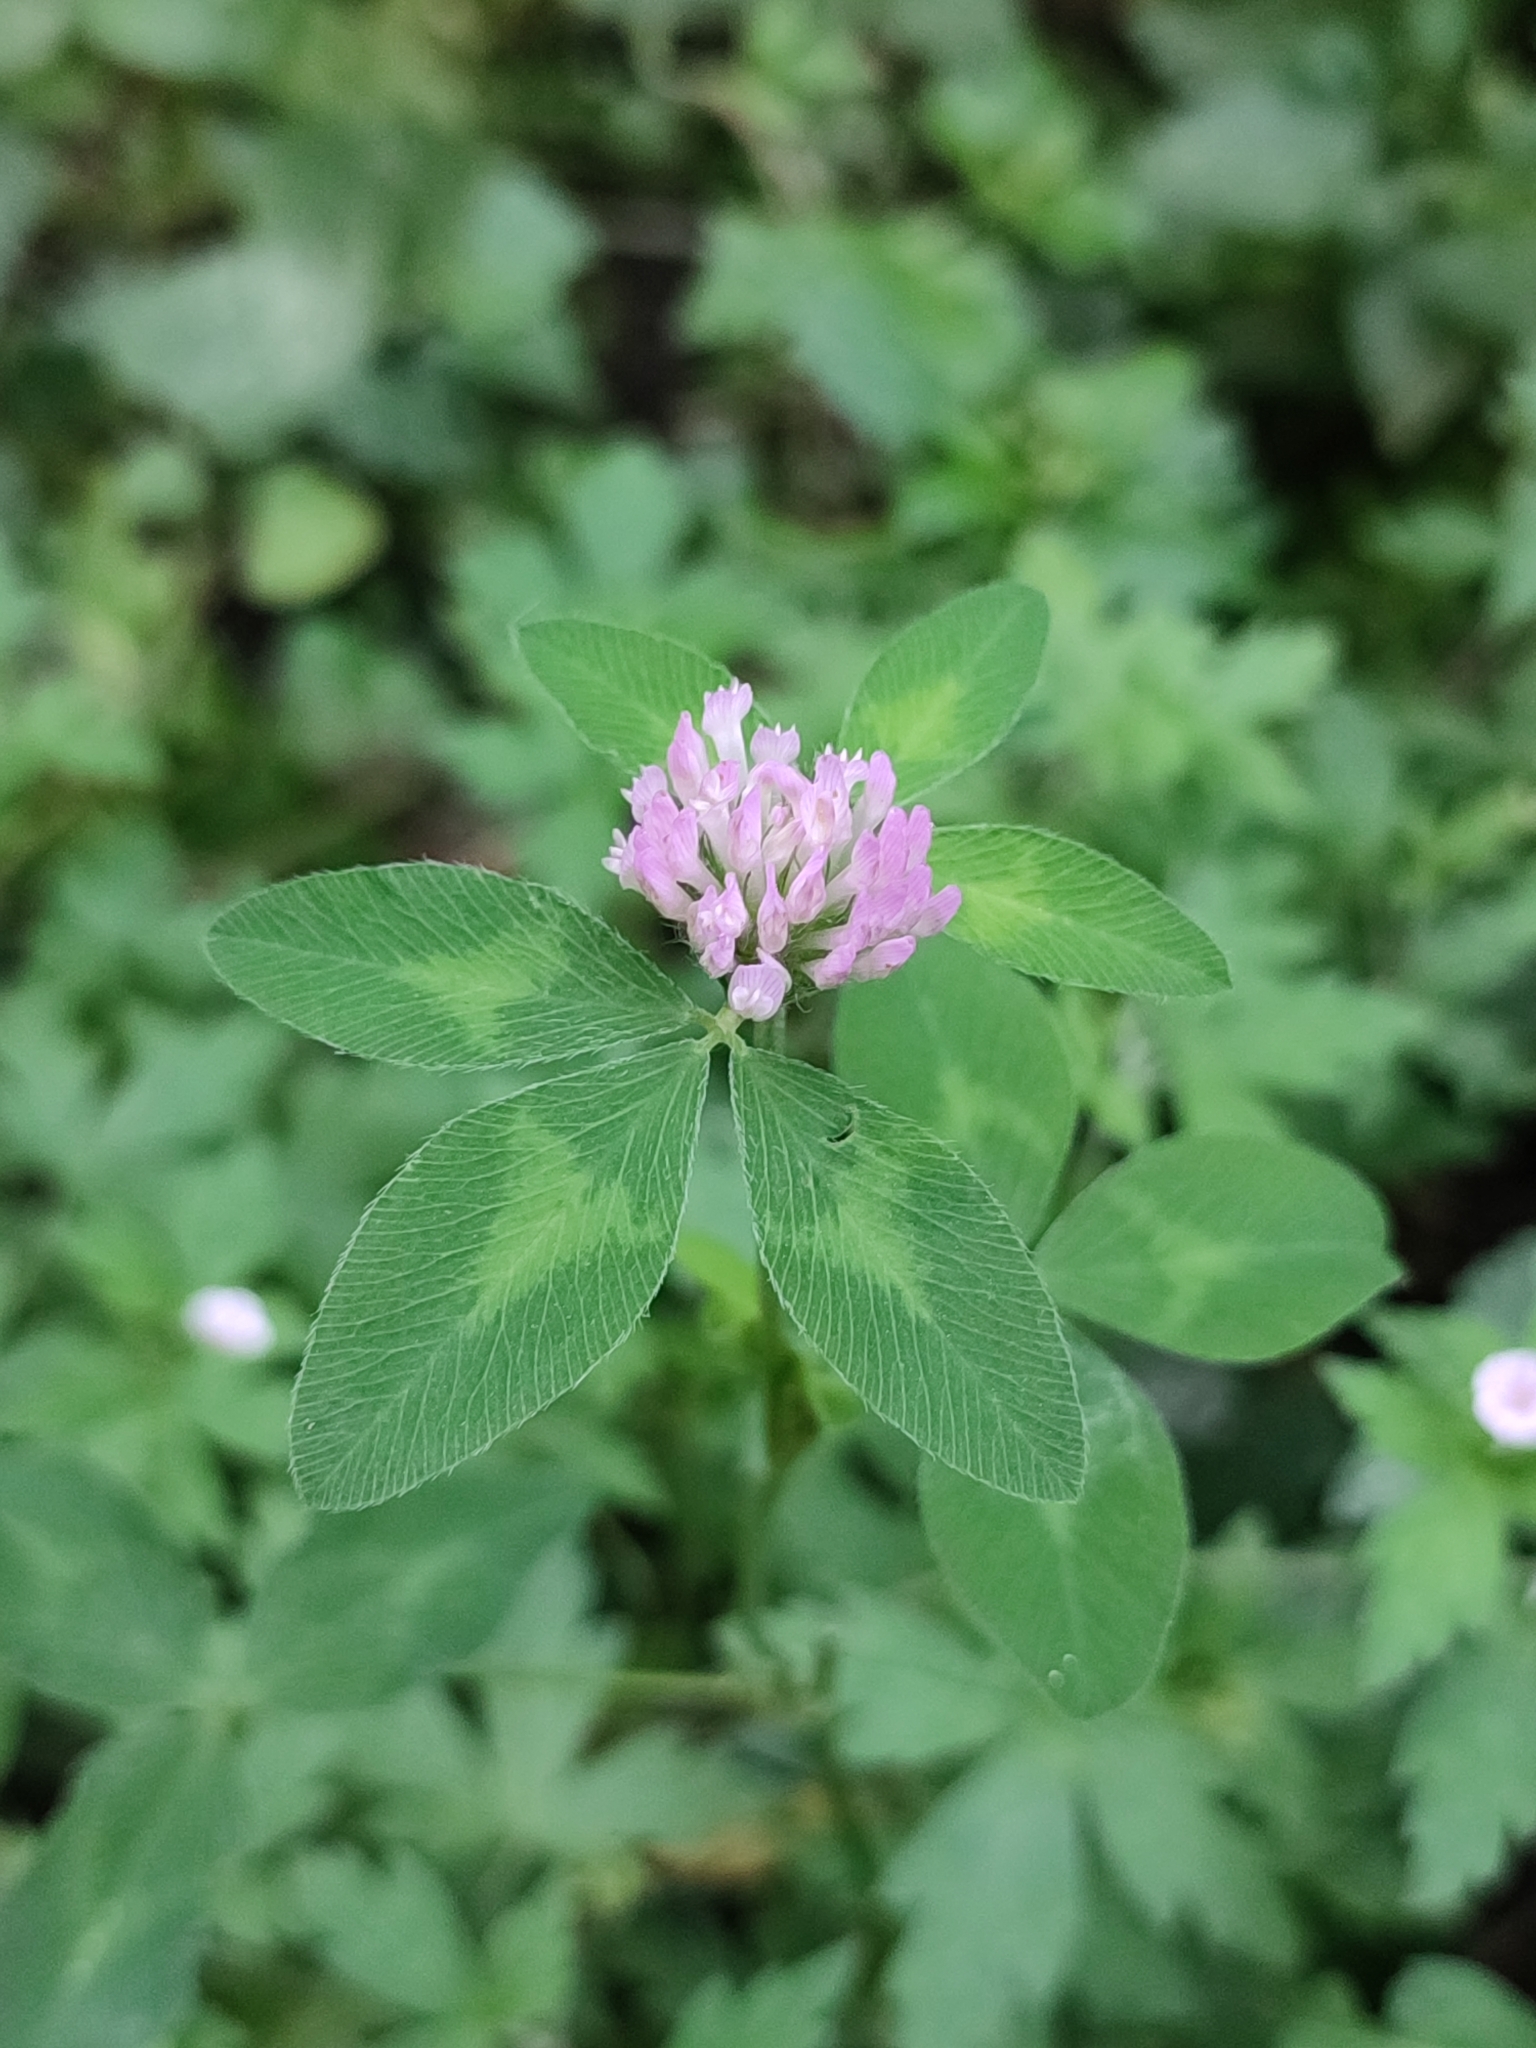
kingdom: Plantae
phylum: Tracheophyta
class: Magnoliopsida
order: Fabales
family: Fabaceae
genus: Trifolium
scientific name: Trifolium pratense
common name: Red clover
